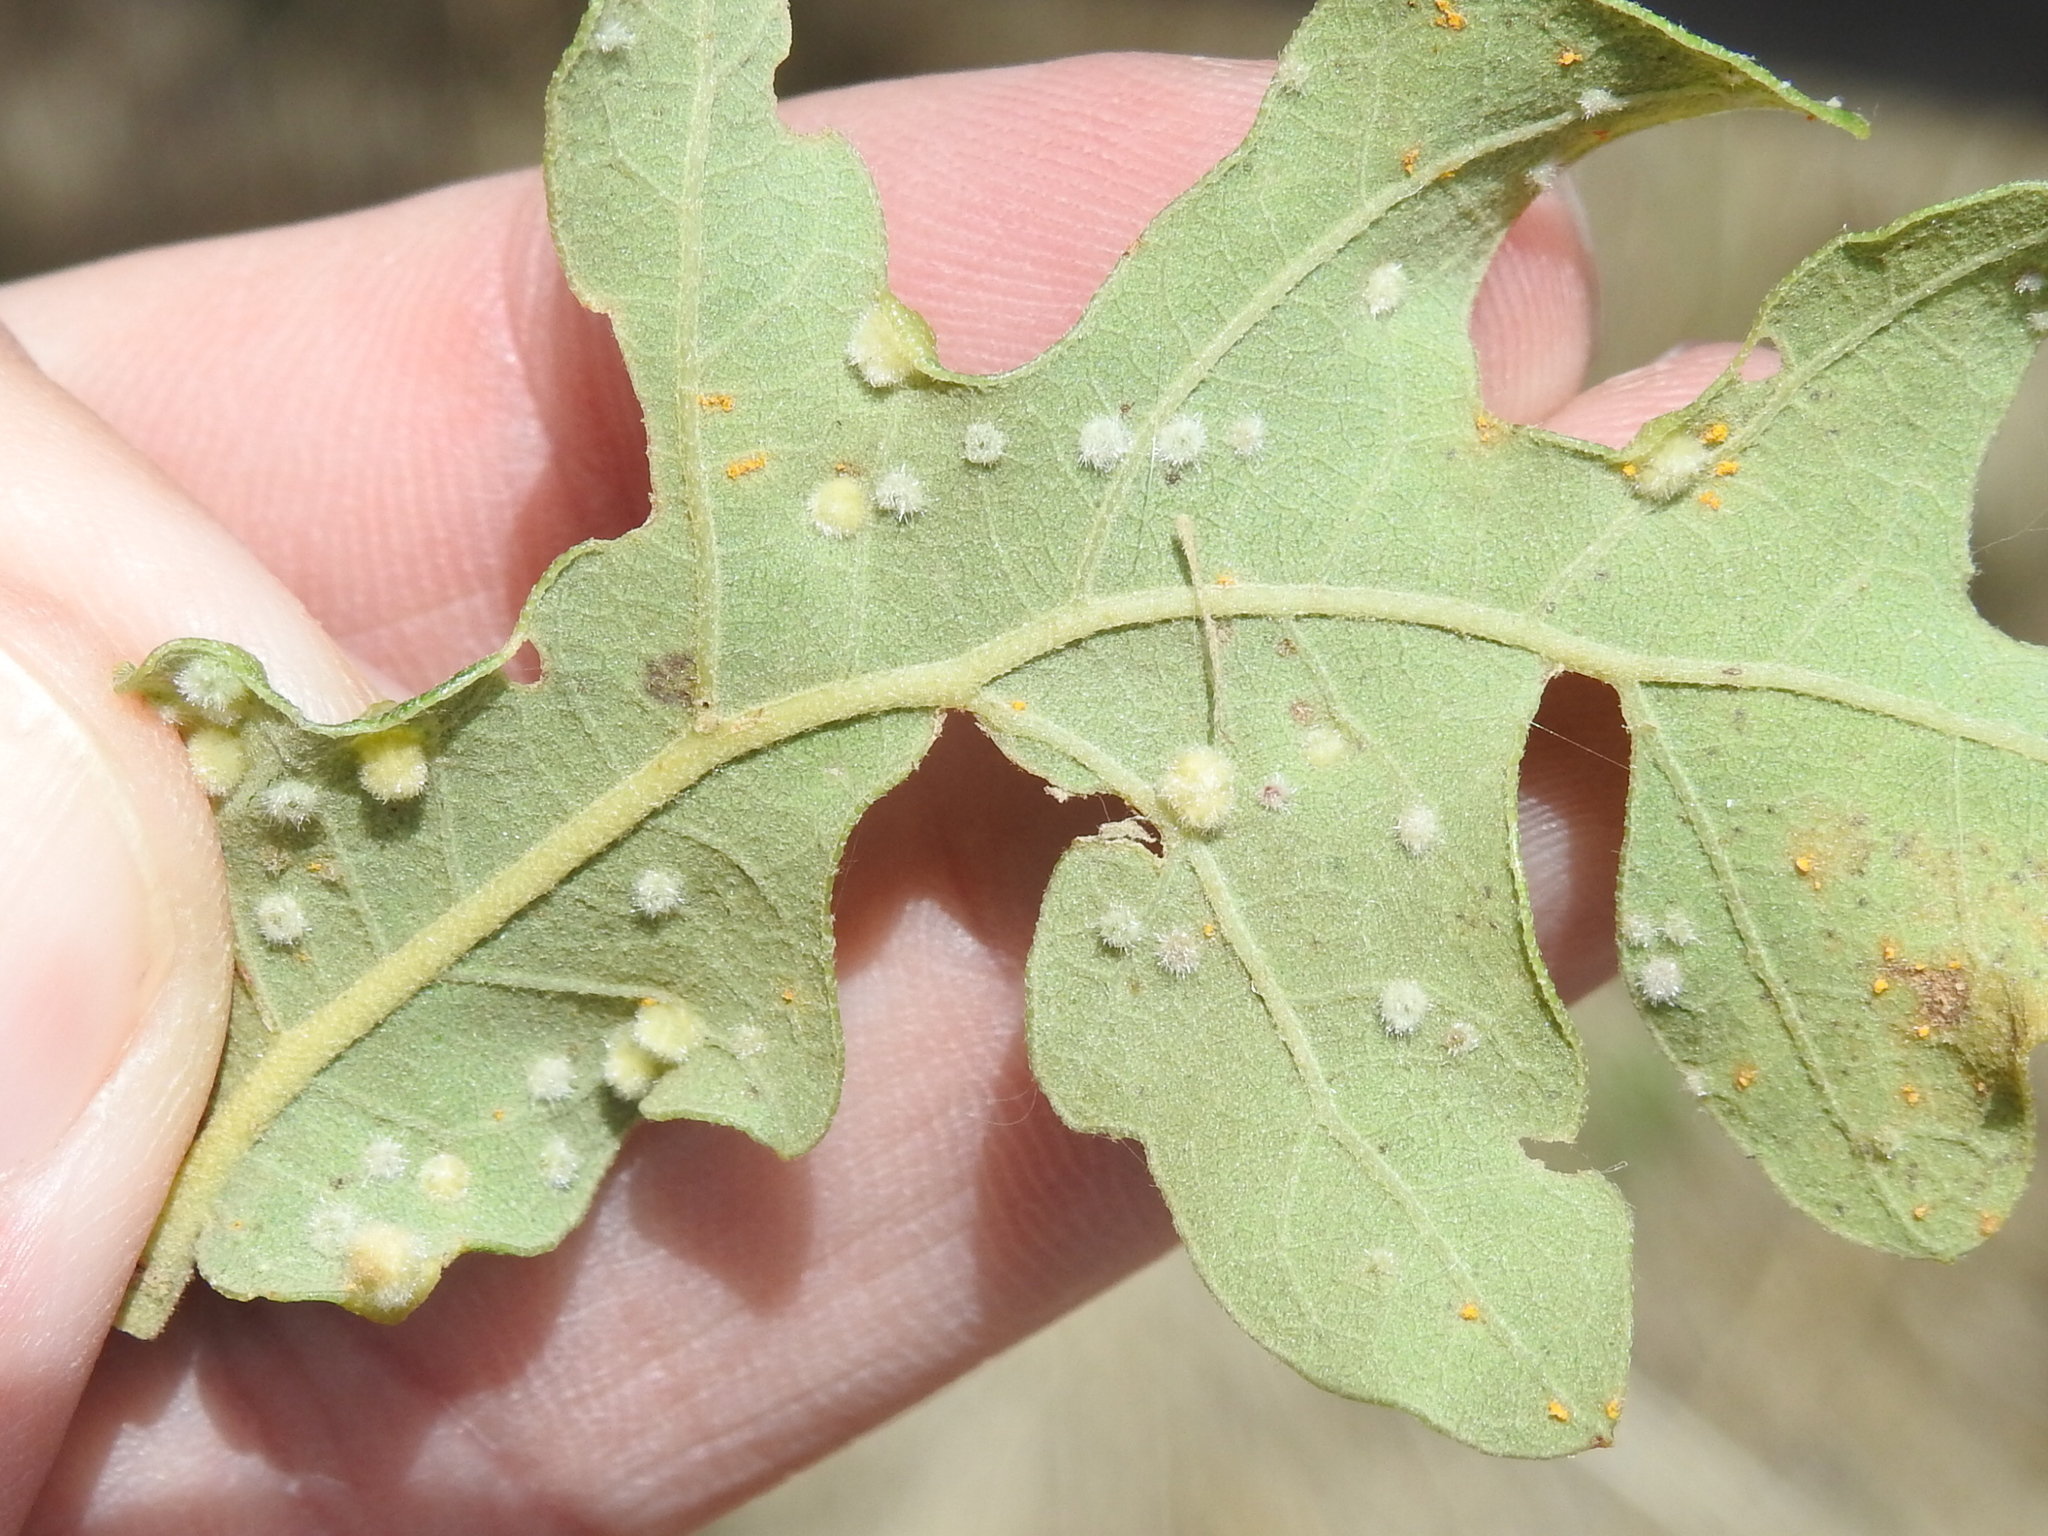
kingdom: Animalia
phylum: Arthropoda
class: Insecta
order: Hymenoptera
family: Cynipidae
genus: Neuroterus
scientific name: Neuroterus quercusverrucarum
